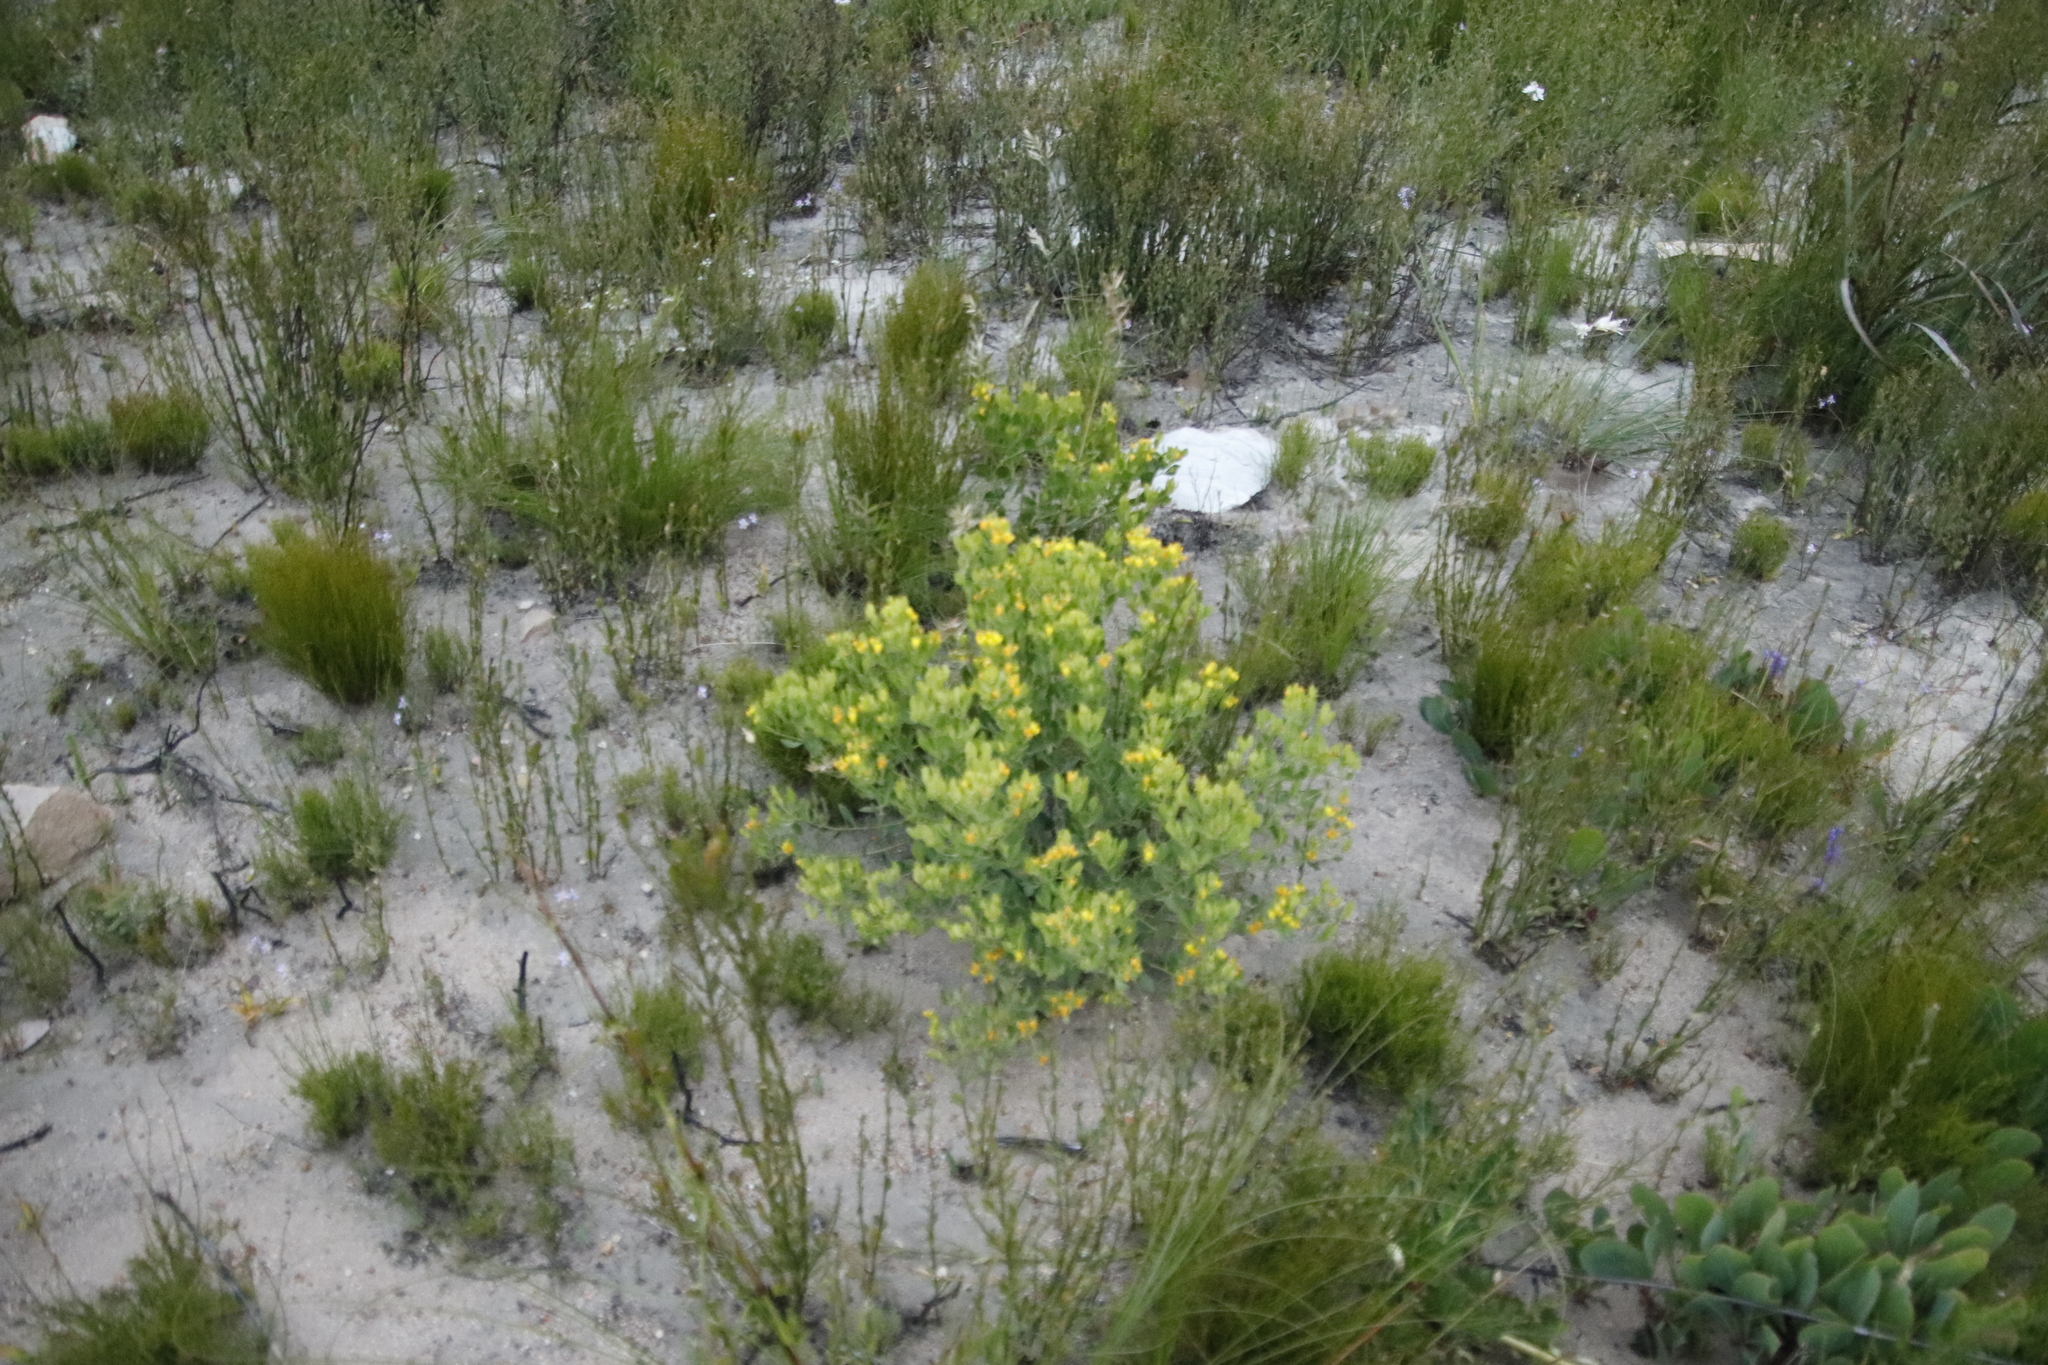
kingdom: Plantae
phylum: Tracheophyta
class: Magnoliopsida
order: Fabales
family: Fabaceae
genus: Rafnia
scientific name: Rafnia capensis
